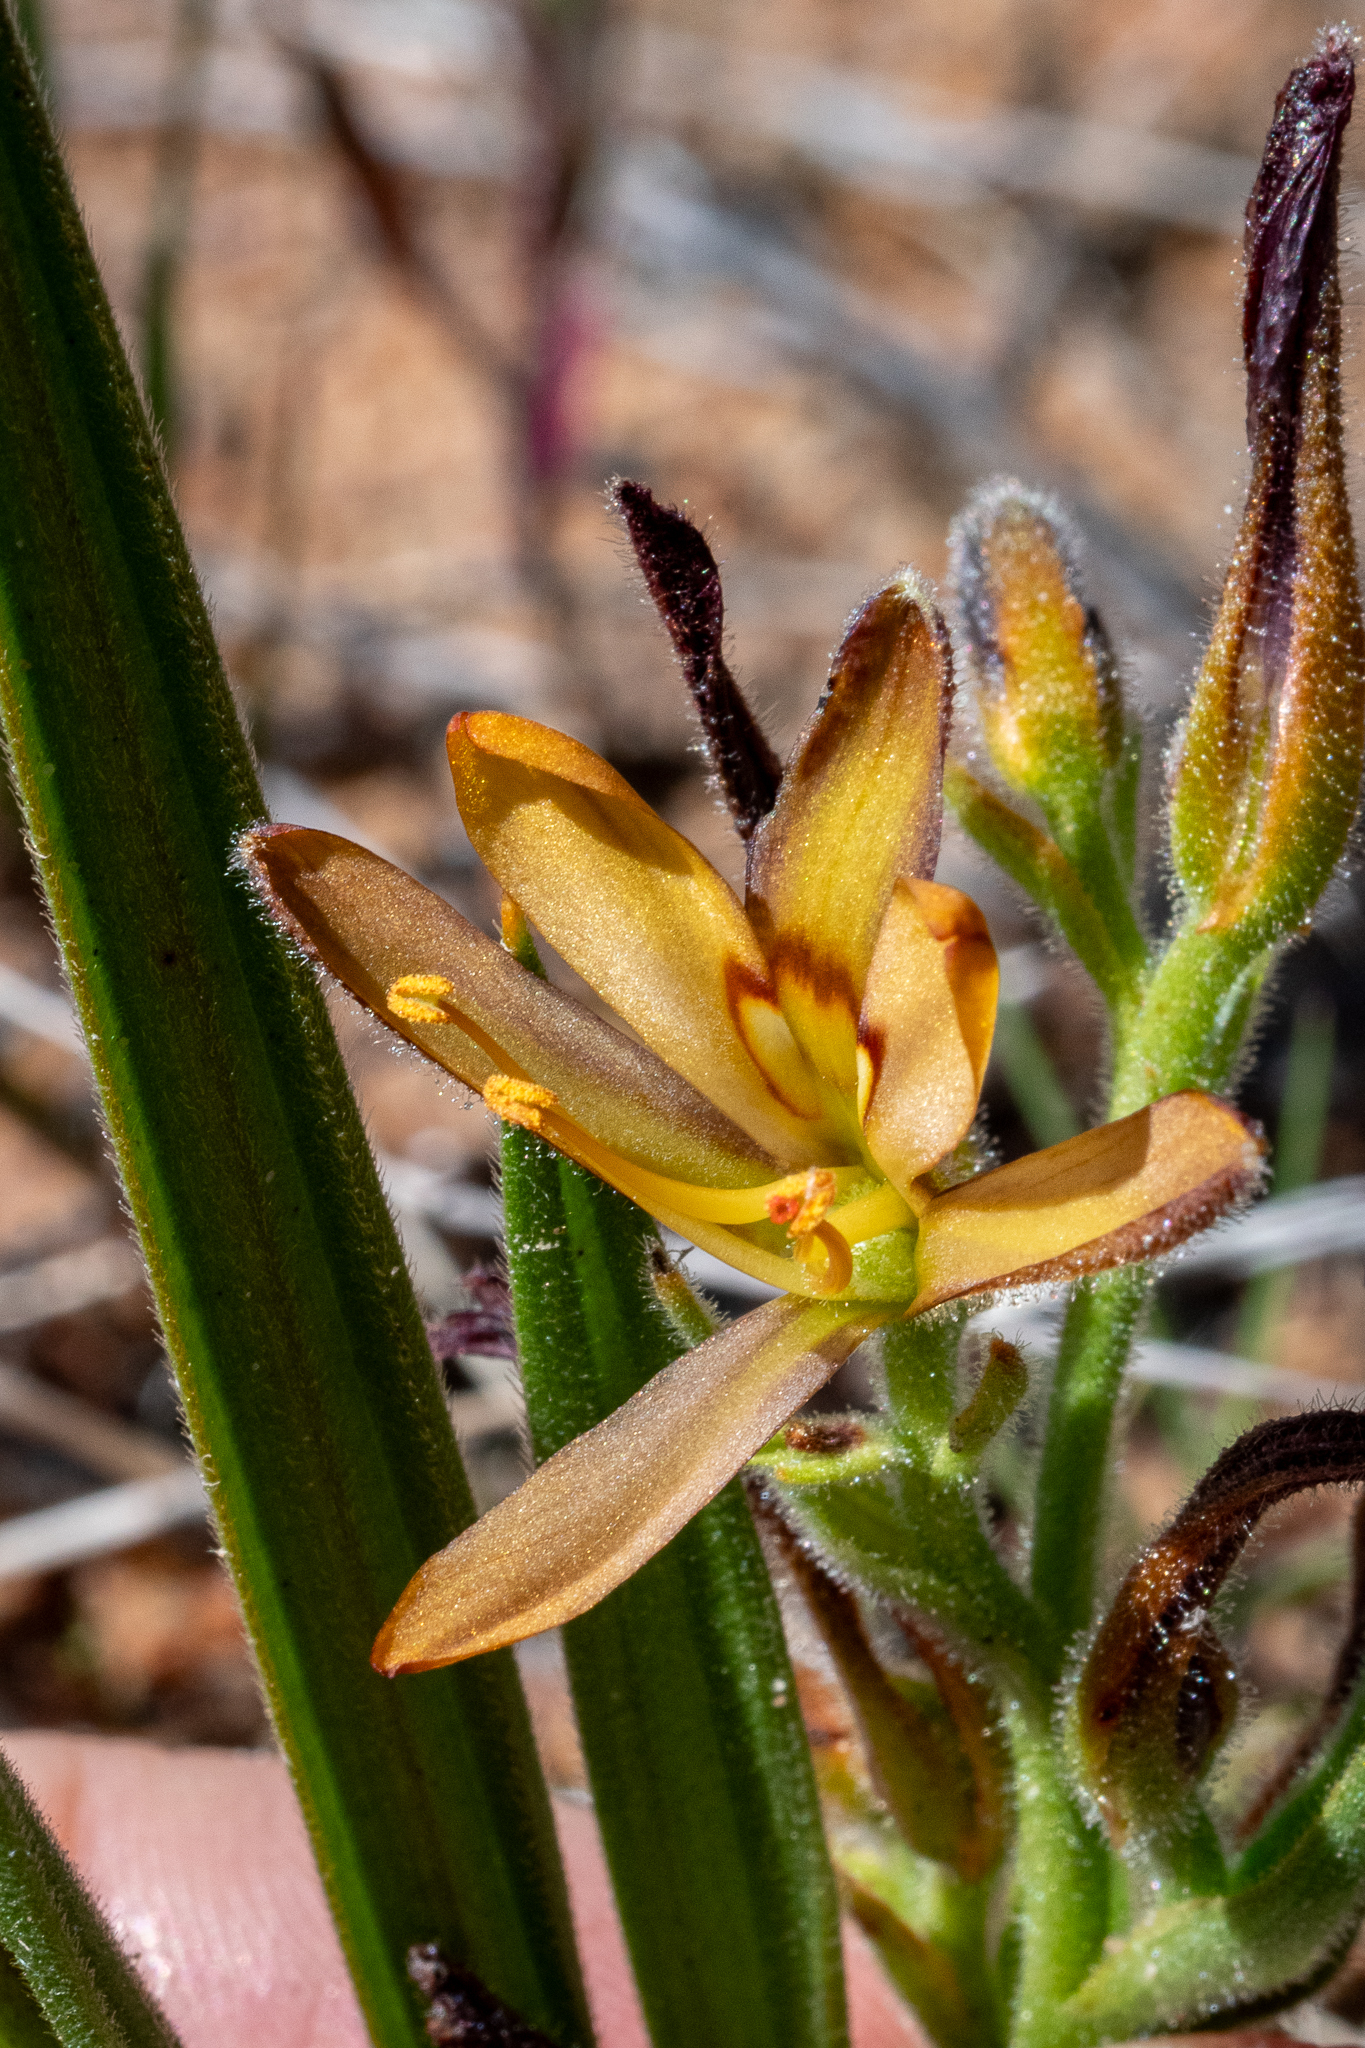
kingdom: Plantae
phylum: Tracheophyta
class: Liliopsida
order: Commelinales
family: Haemodoraceae
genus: Wachendorfia
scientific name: Wachendorfia multiflora
